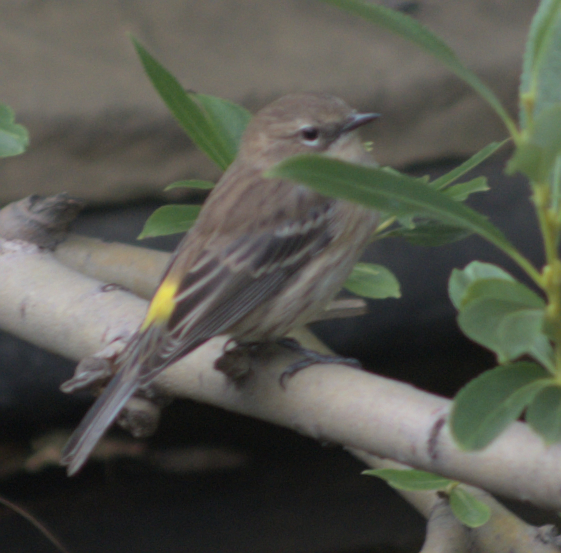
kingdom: Animalia
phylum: Chordata
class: Aves
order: Passeriformes
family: Parulidae
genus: Setophaga
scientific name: Setophaga coronata
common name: Myrtle warbler
